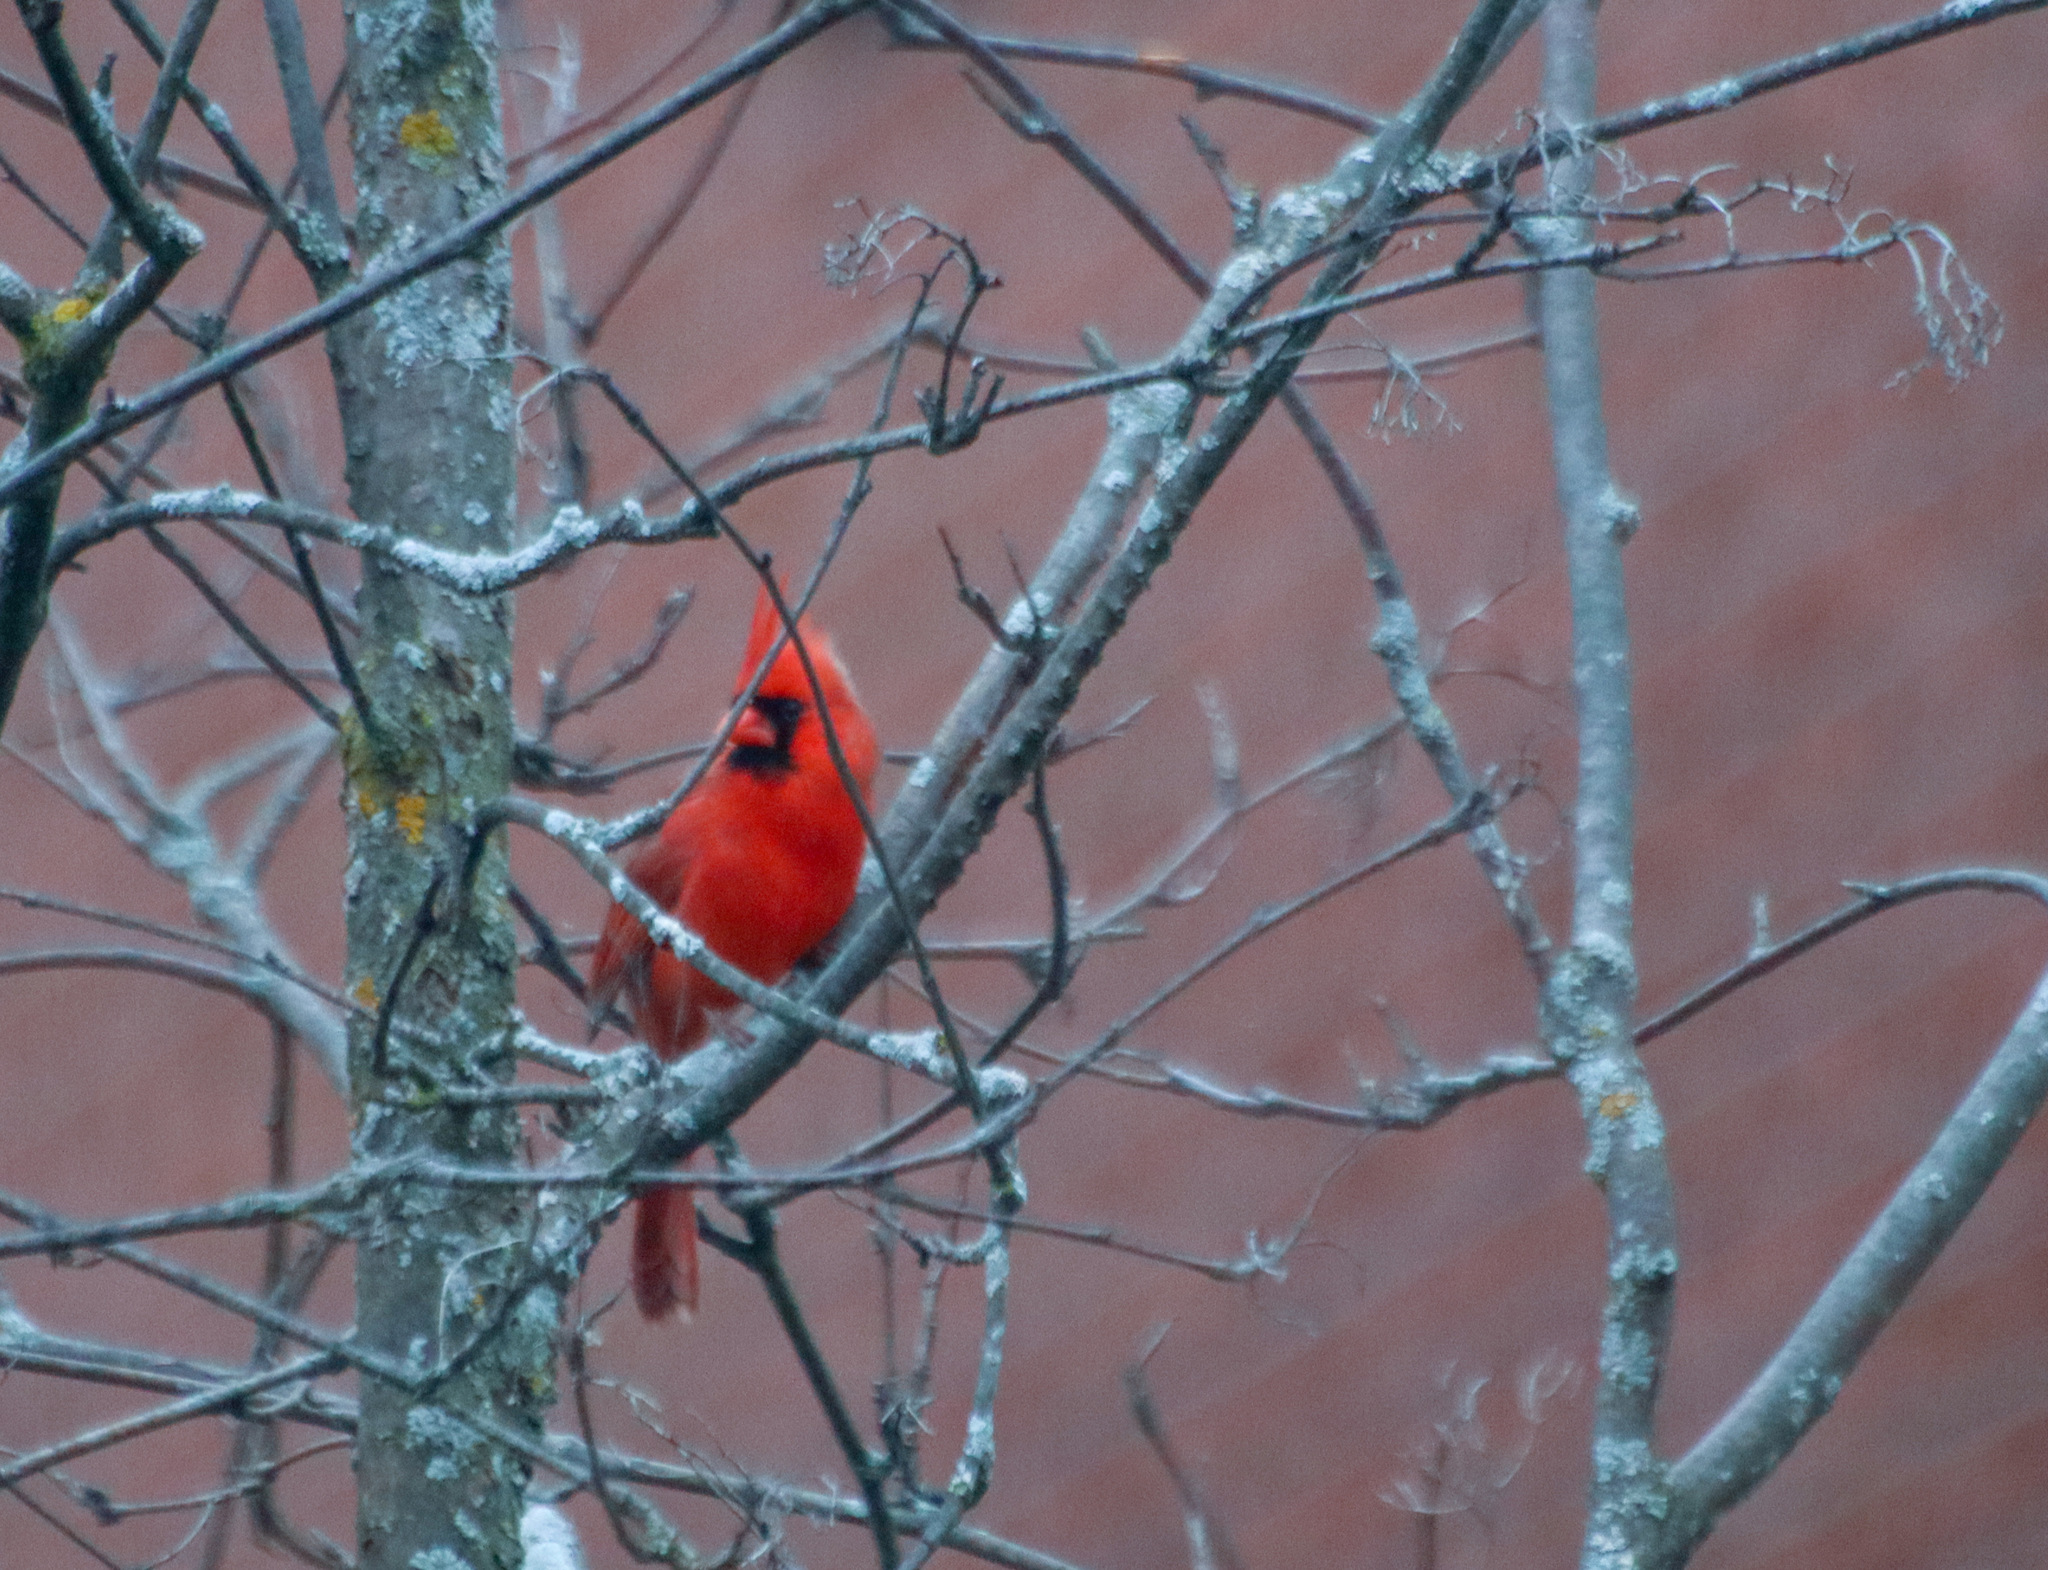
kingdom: Animalia
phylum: Chordata
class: Aves
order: Passeriformes
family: Cardinalidae
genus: Cardinalis
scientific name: Cardinalis cardinalis
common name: Northern cardinal
